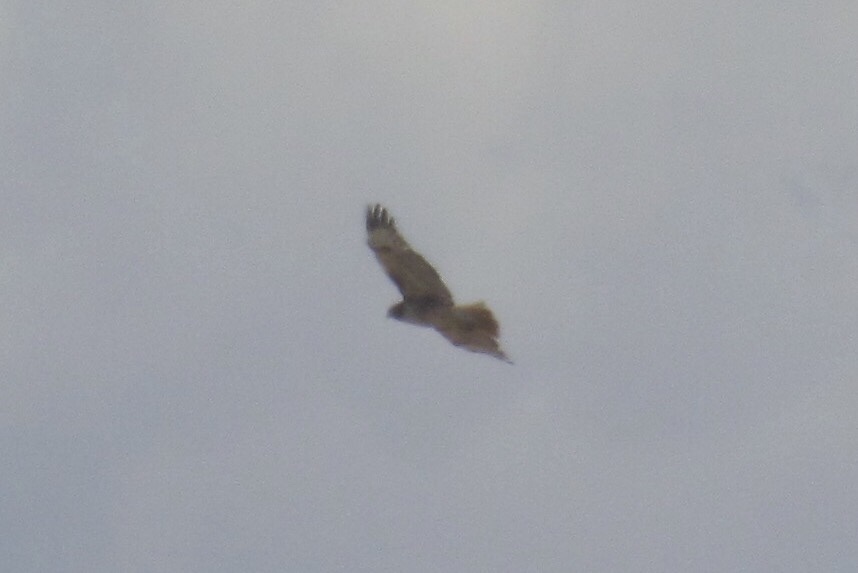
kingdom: Animalia
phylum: Chordata
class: Aves
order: Accipitriformes
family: Accipitridae
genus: Buteo
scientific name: Buteo jamaicensis
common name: Red-tailed hawk
